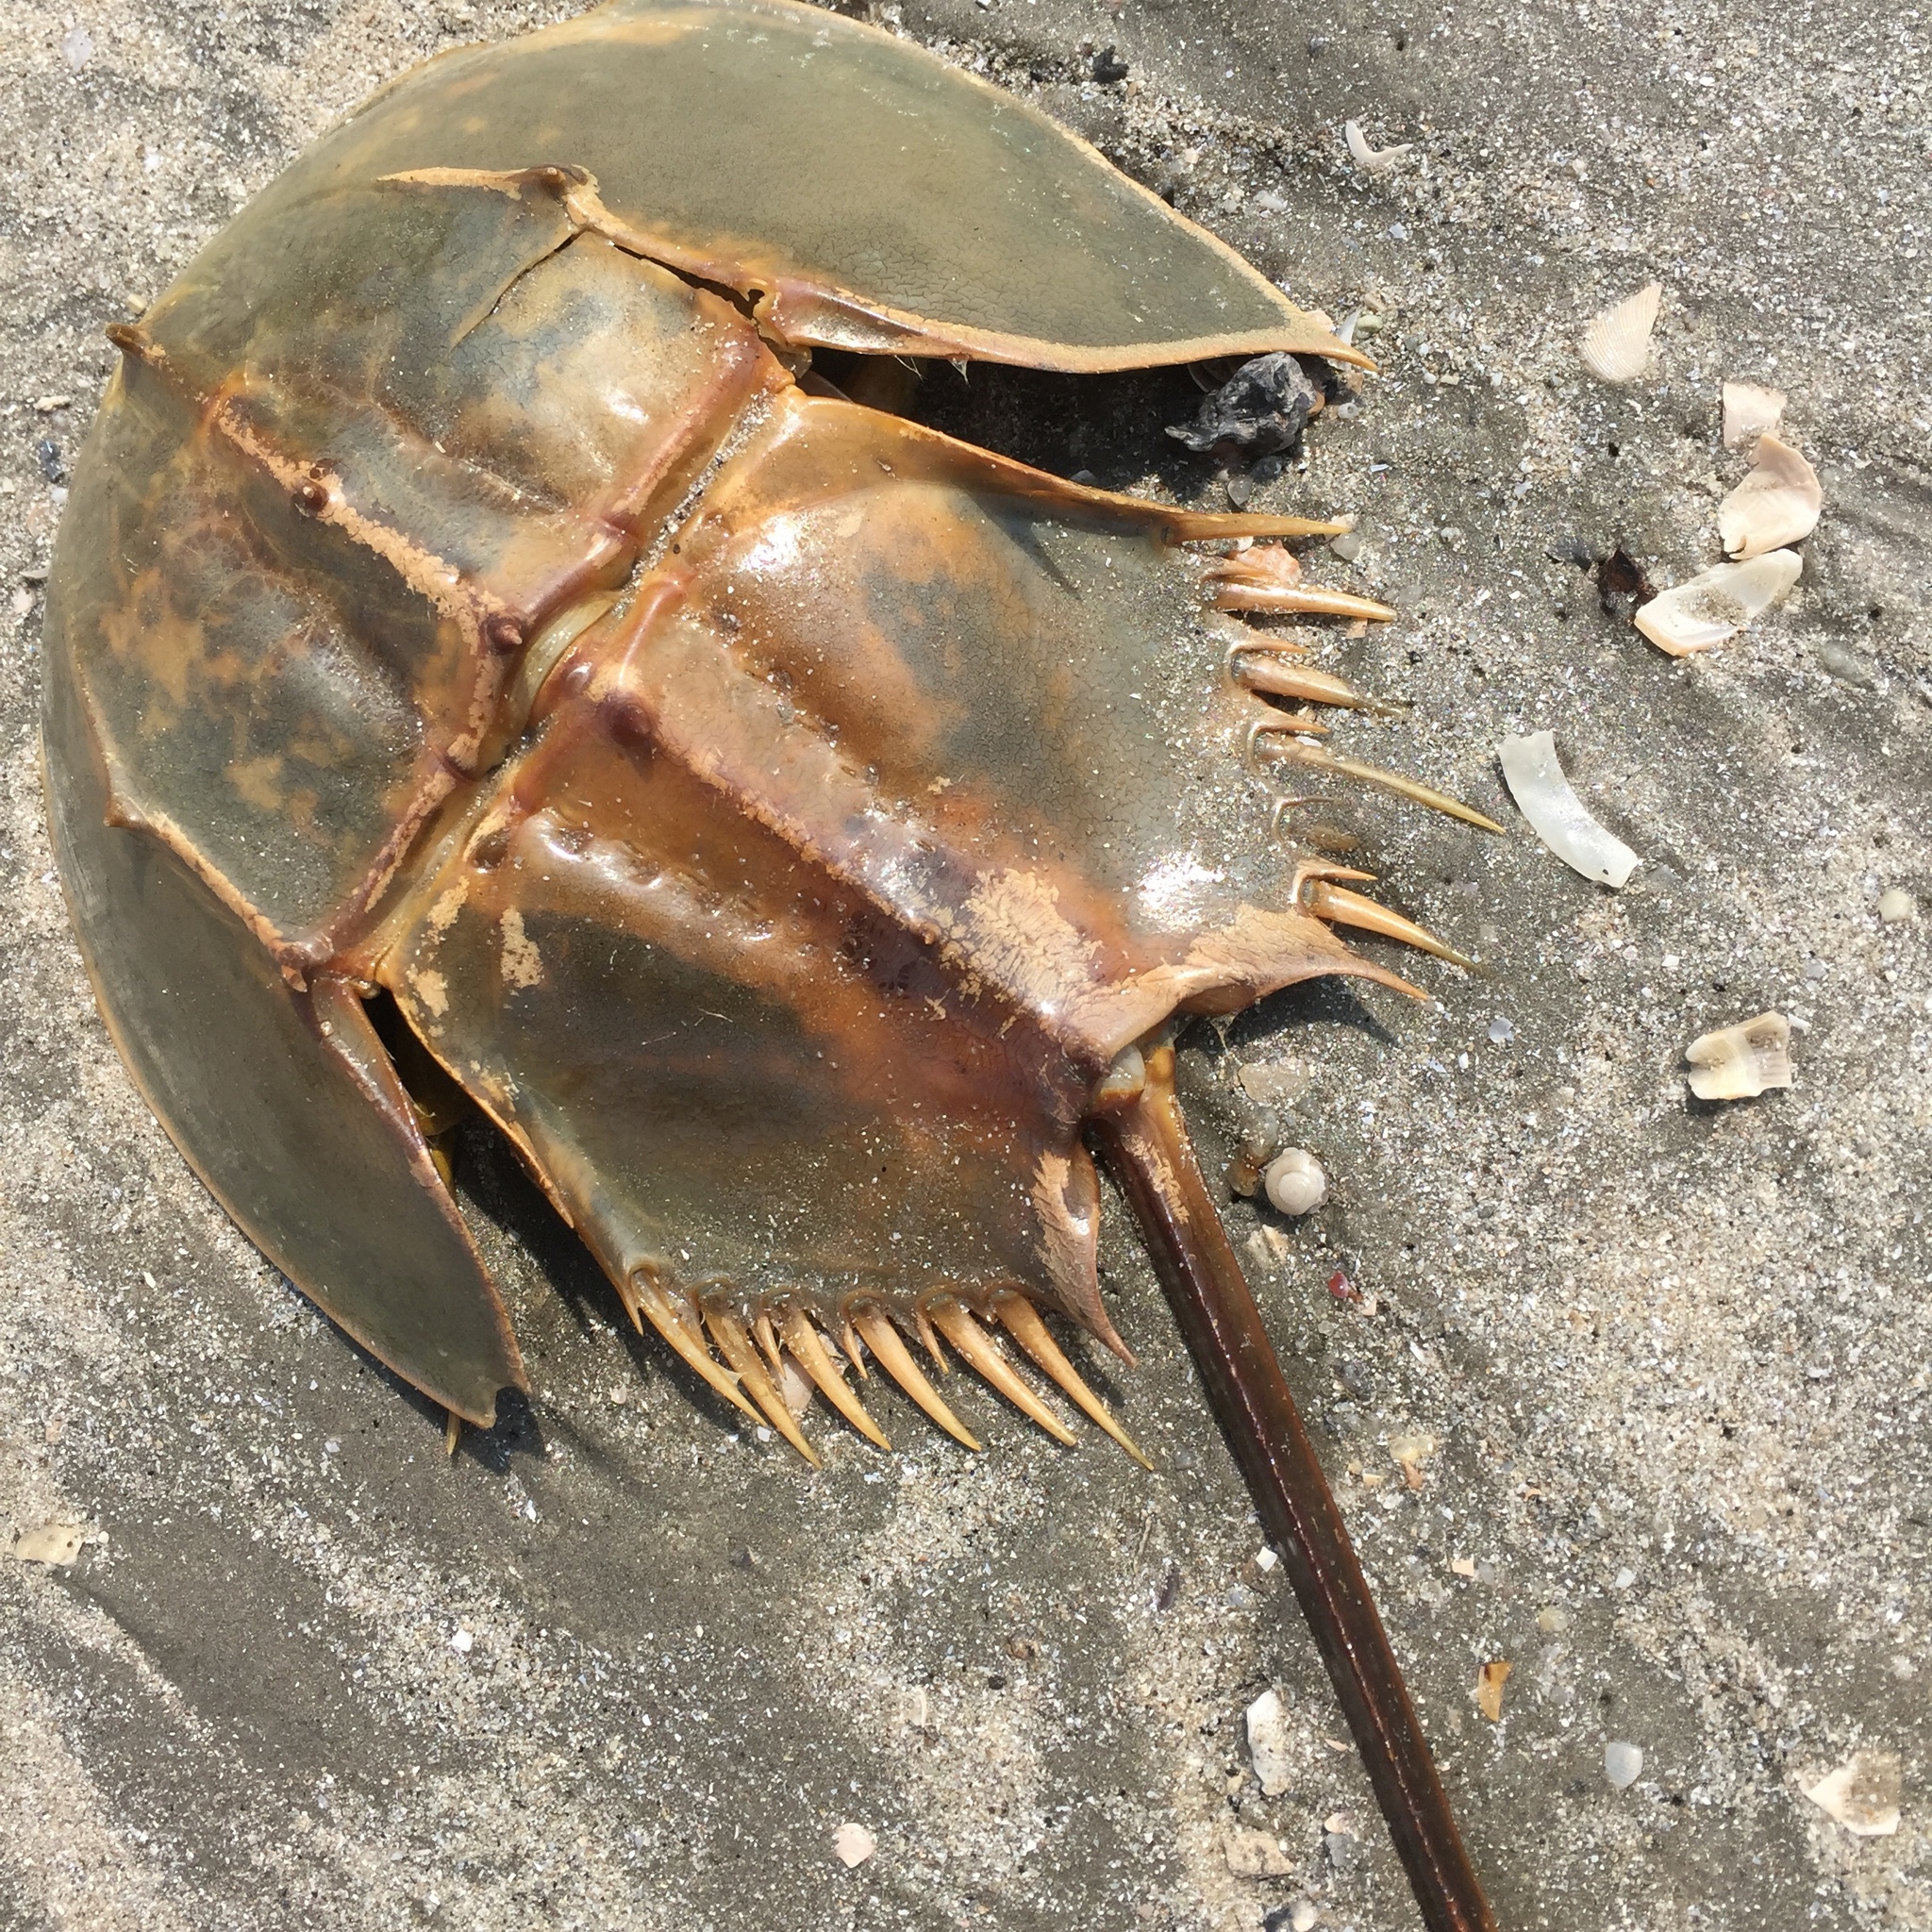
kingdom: Animalia
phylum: Arthropoda
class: Merostomata
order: Xiphosurida
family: Limulidae
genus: Tachypleus
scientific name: Tachypleus gigas
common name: Coastal horseshoe crab
